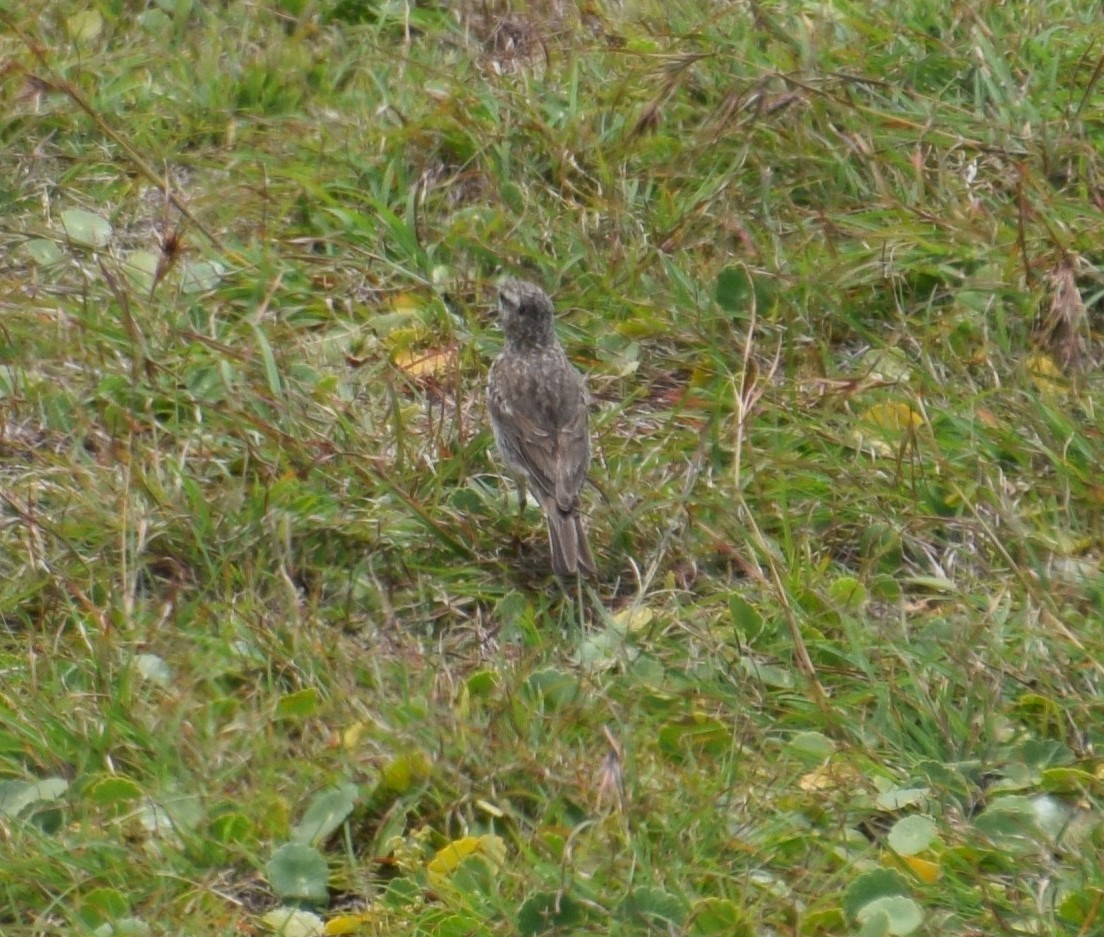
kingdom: Animalia
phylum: Chordata
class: Aves
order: Passeriformes
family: Motacillidae
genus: Anthus
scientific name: Anthus australis
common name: Australian pipit
